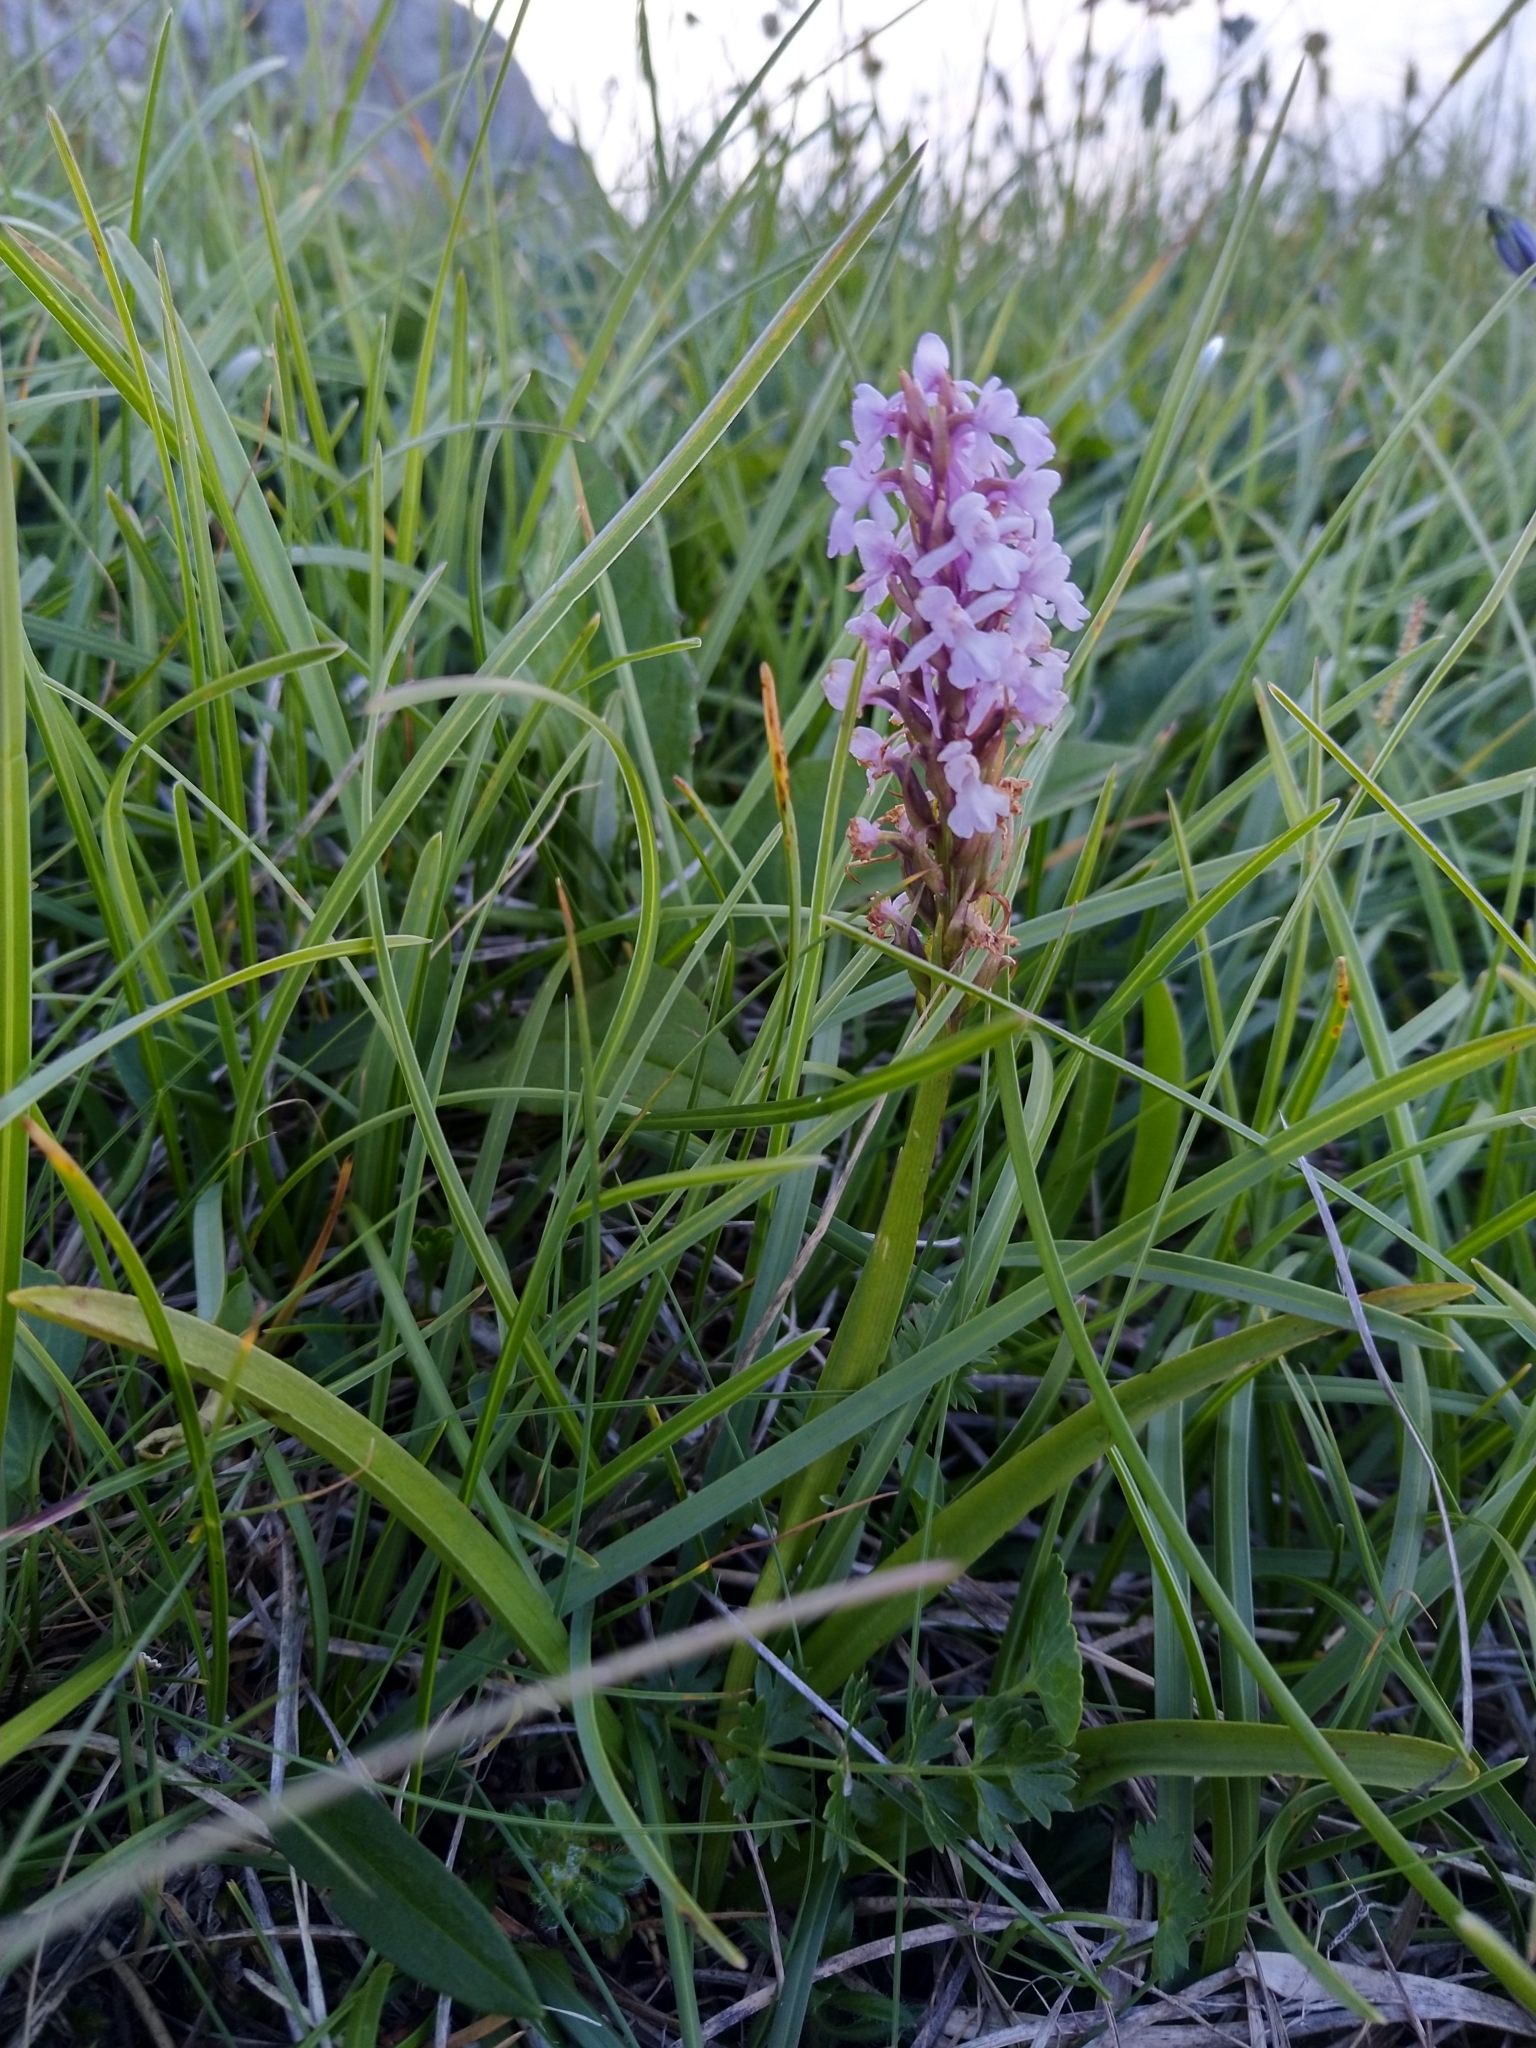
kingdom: Plantae
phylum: Tracheophyta
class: Liliopsida
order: Asparagales
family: Orchidaceae
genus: Gymnadenia
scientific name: Gymnadenia conopsea
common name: Fragrant orchid
